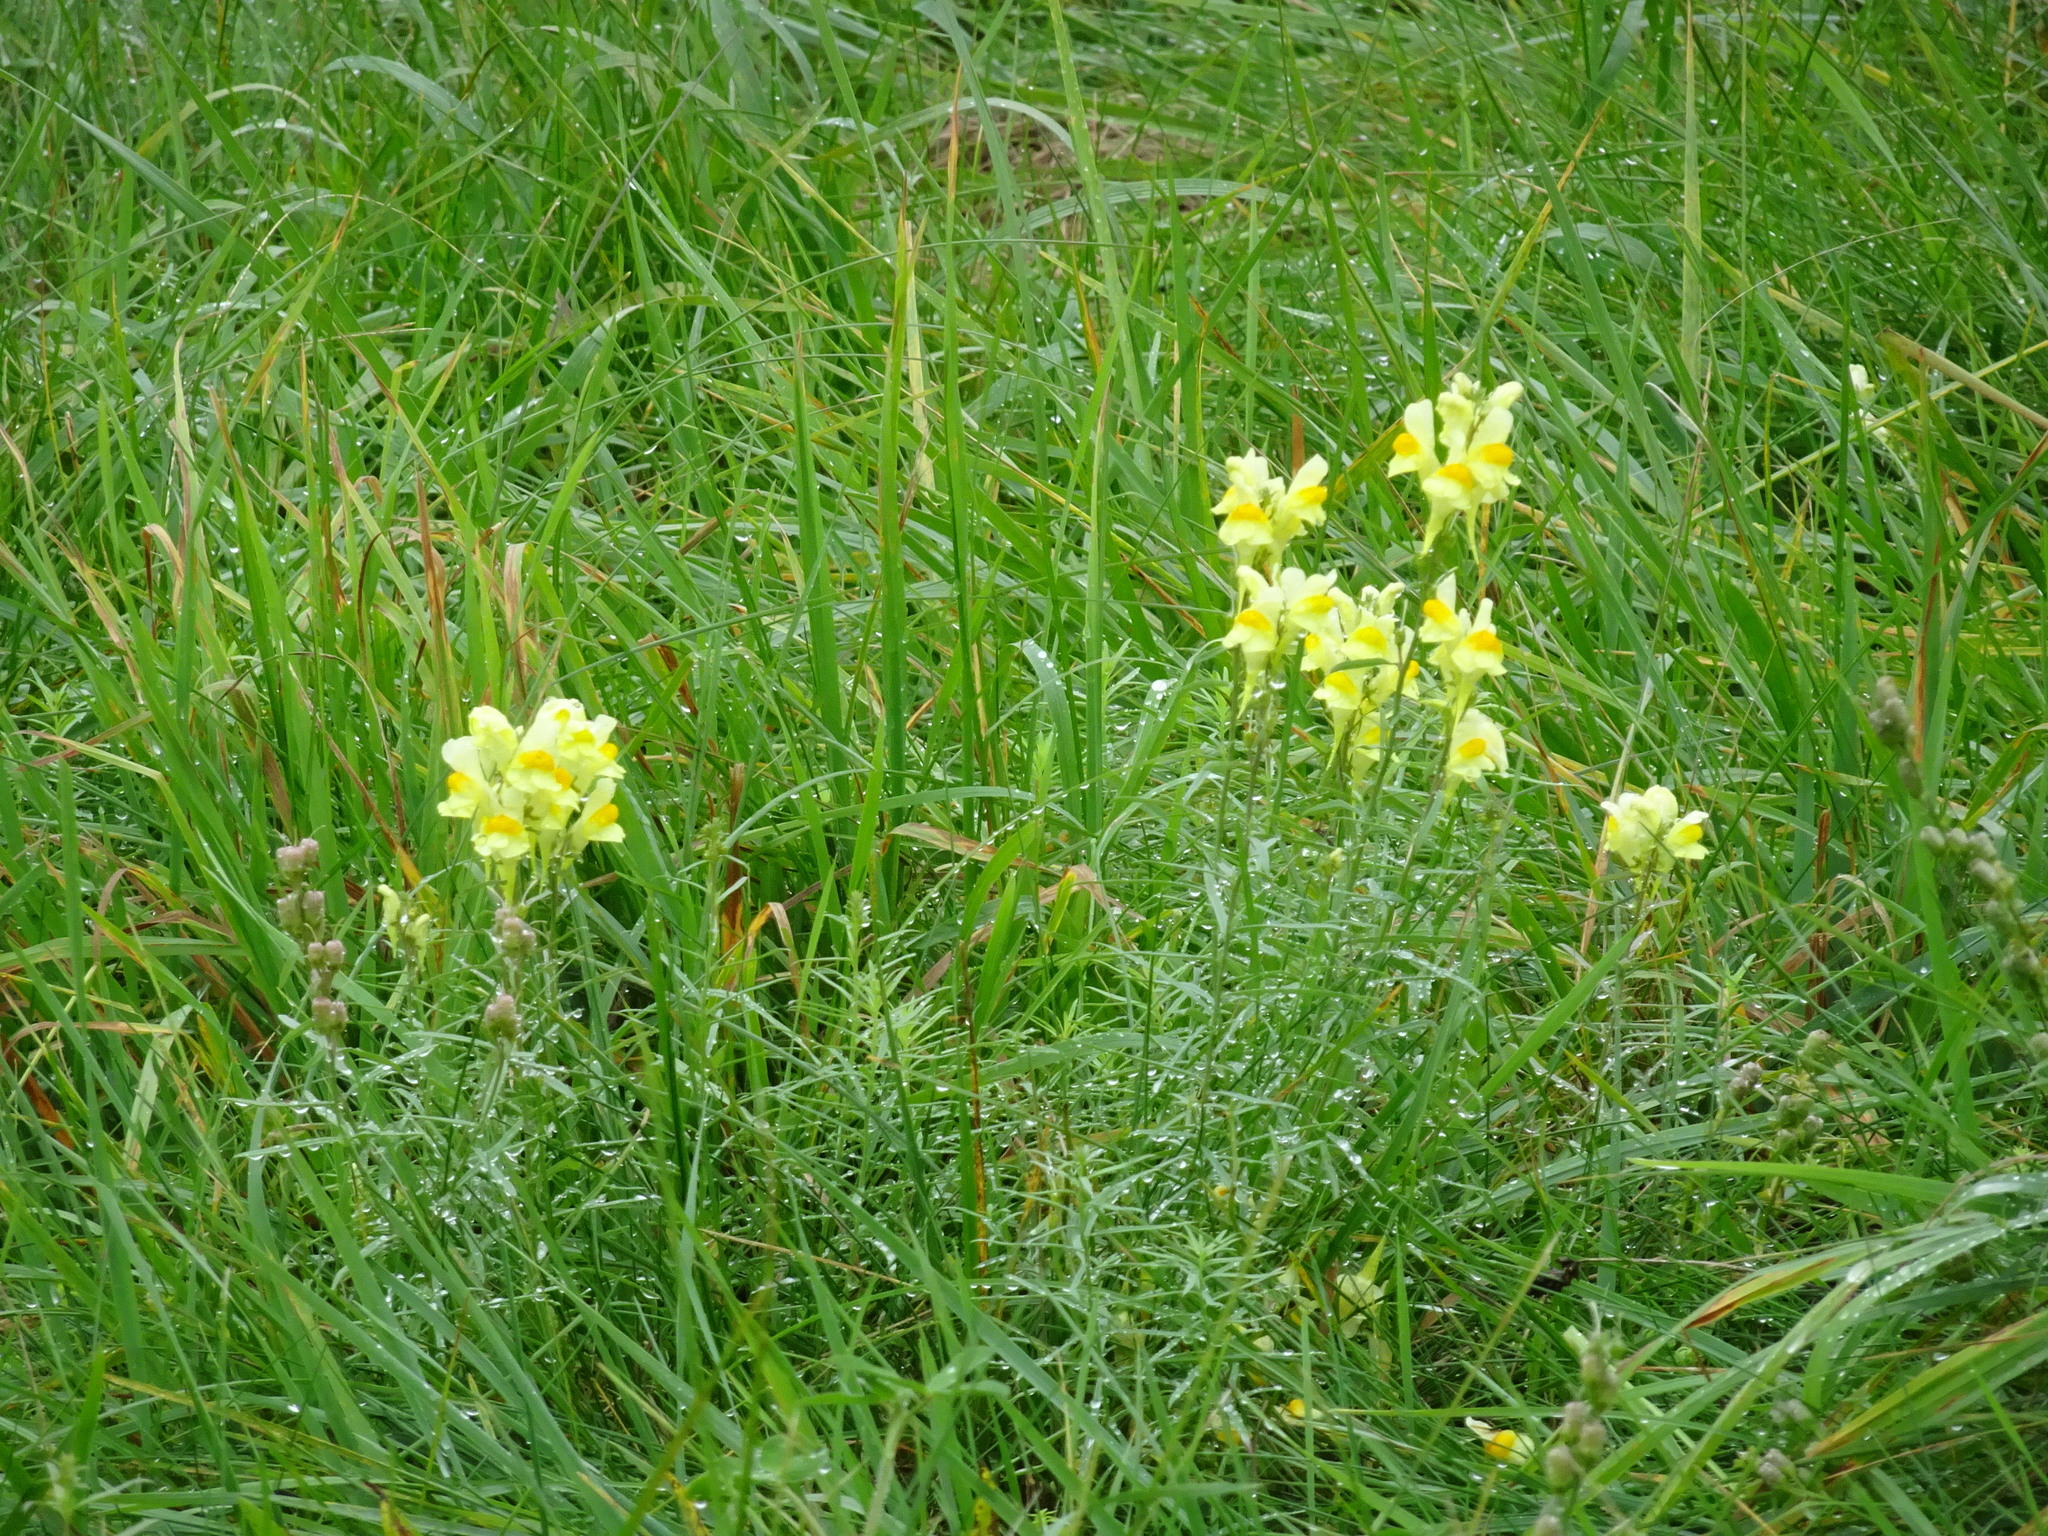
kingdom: Plantae
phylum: Tracheophyta
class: Magnoliopsida
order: Lamiales
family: Plantaginaceae
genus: Linaria
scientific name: Linaria vulgaris
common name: Butter and eggs
